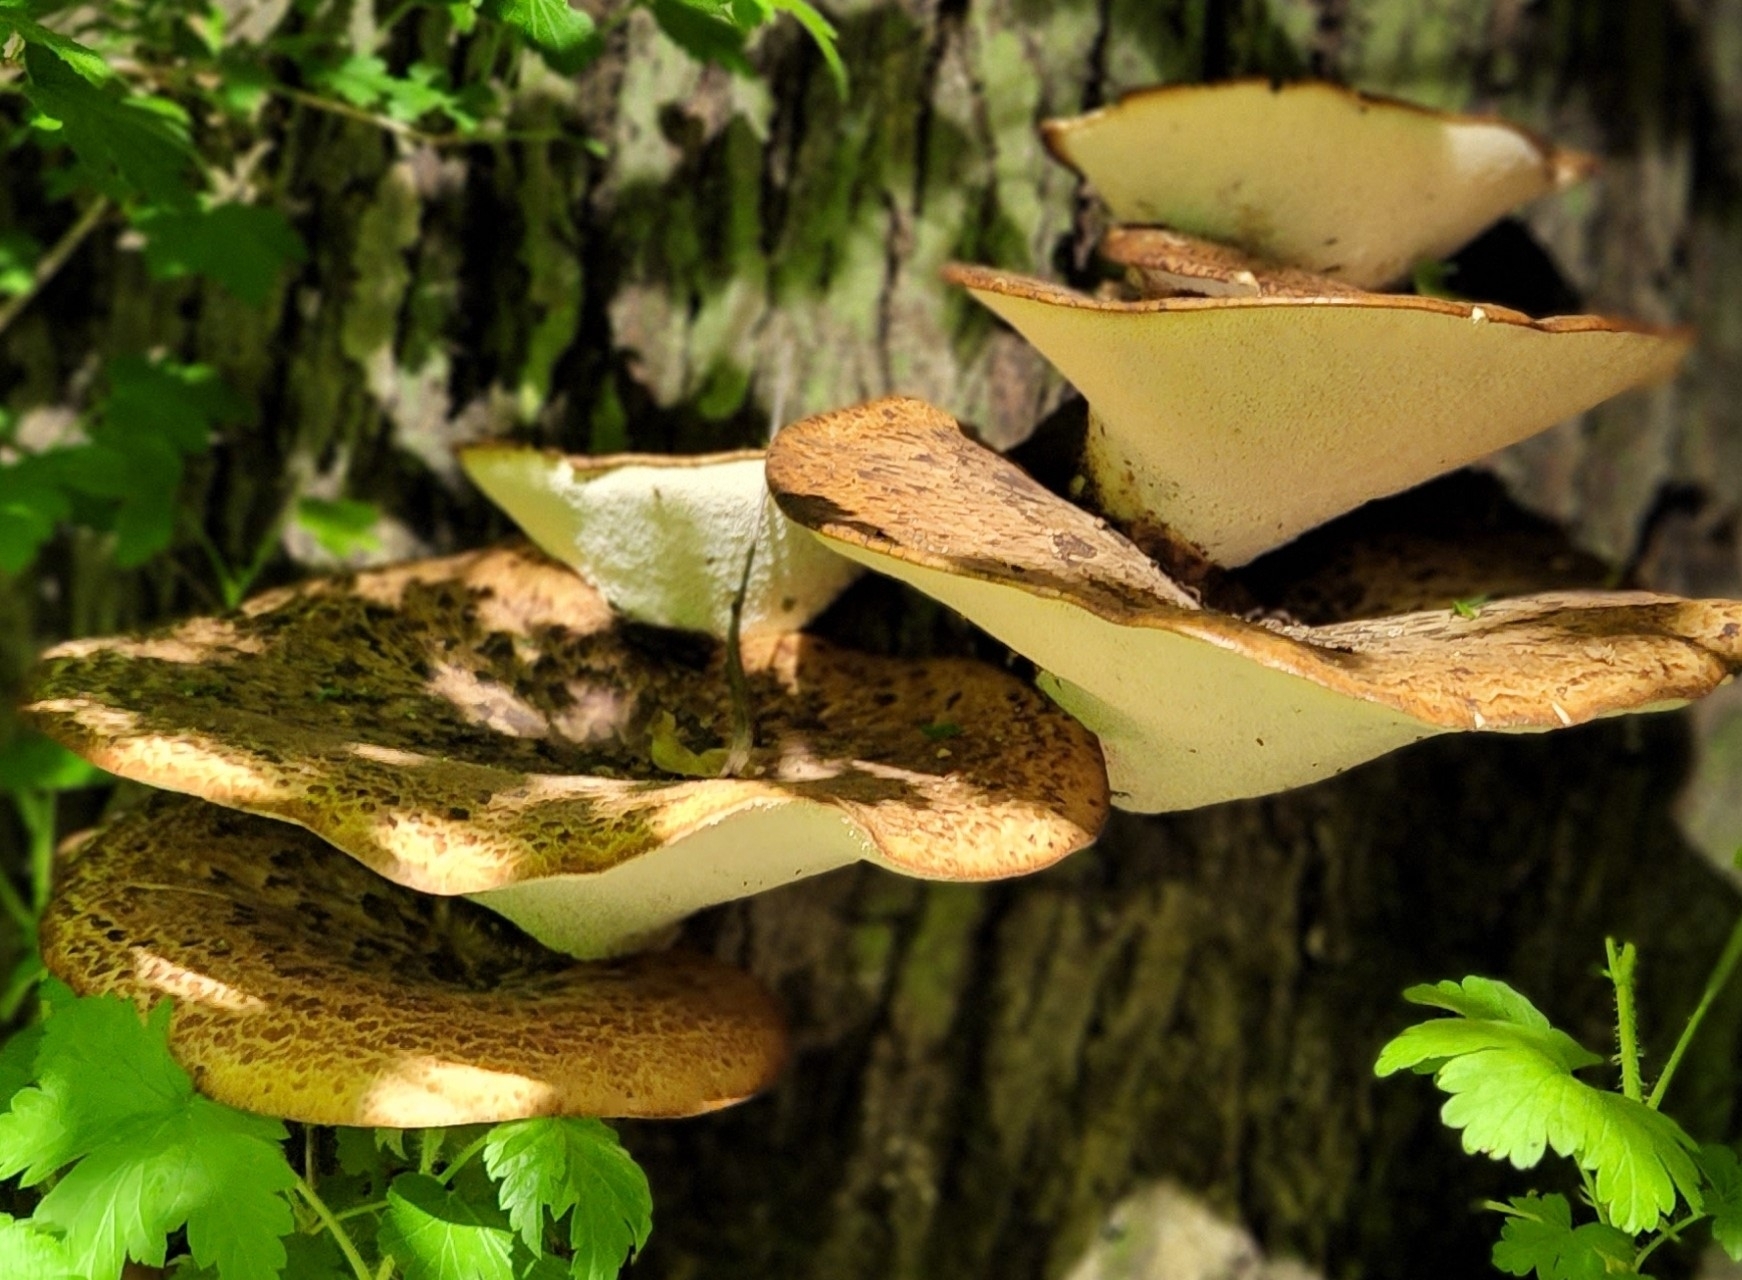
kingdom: Fungi
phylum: Basidiomycota
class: Agaricomycetes
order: Polyporales
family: Polyporaceae
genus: Cerioporus
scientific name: Cerioporus squamosus
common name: Dryad's saddle
